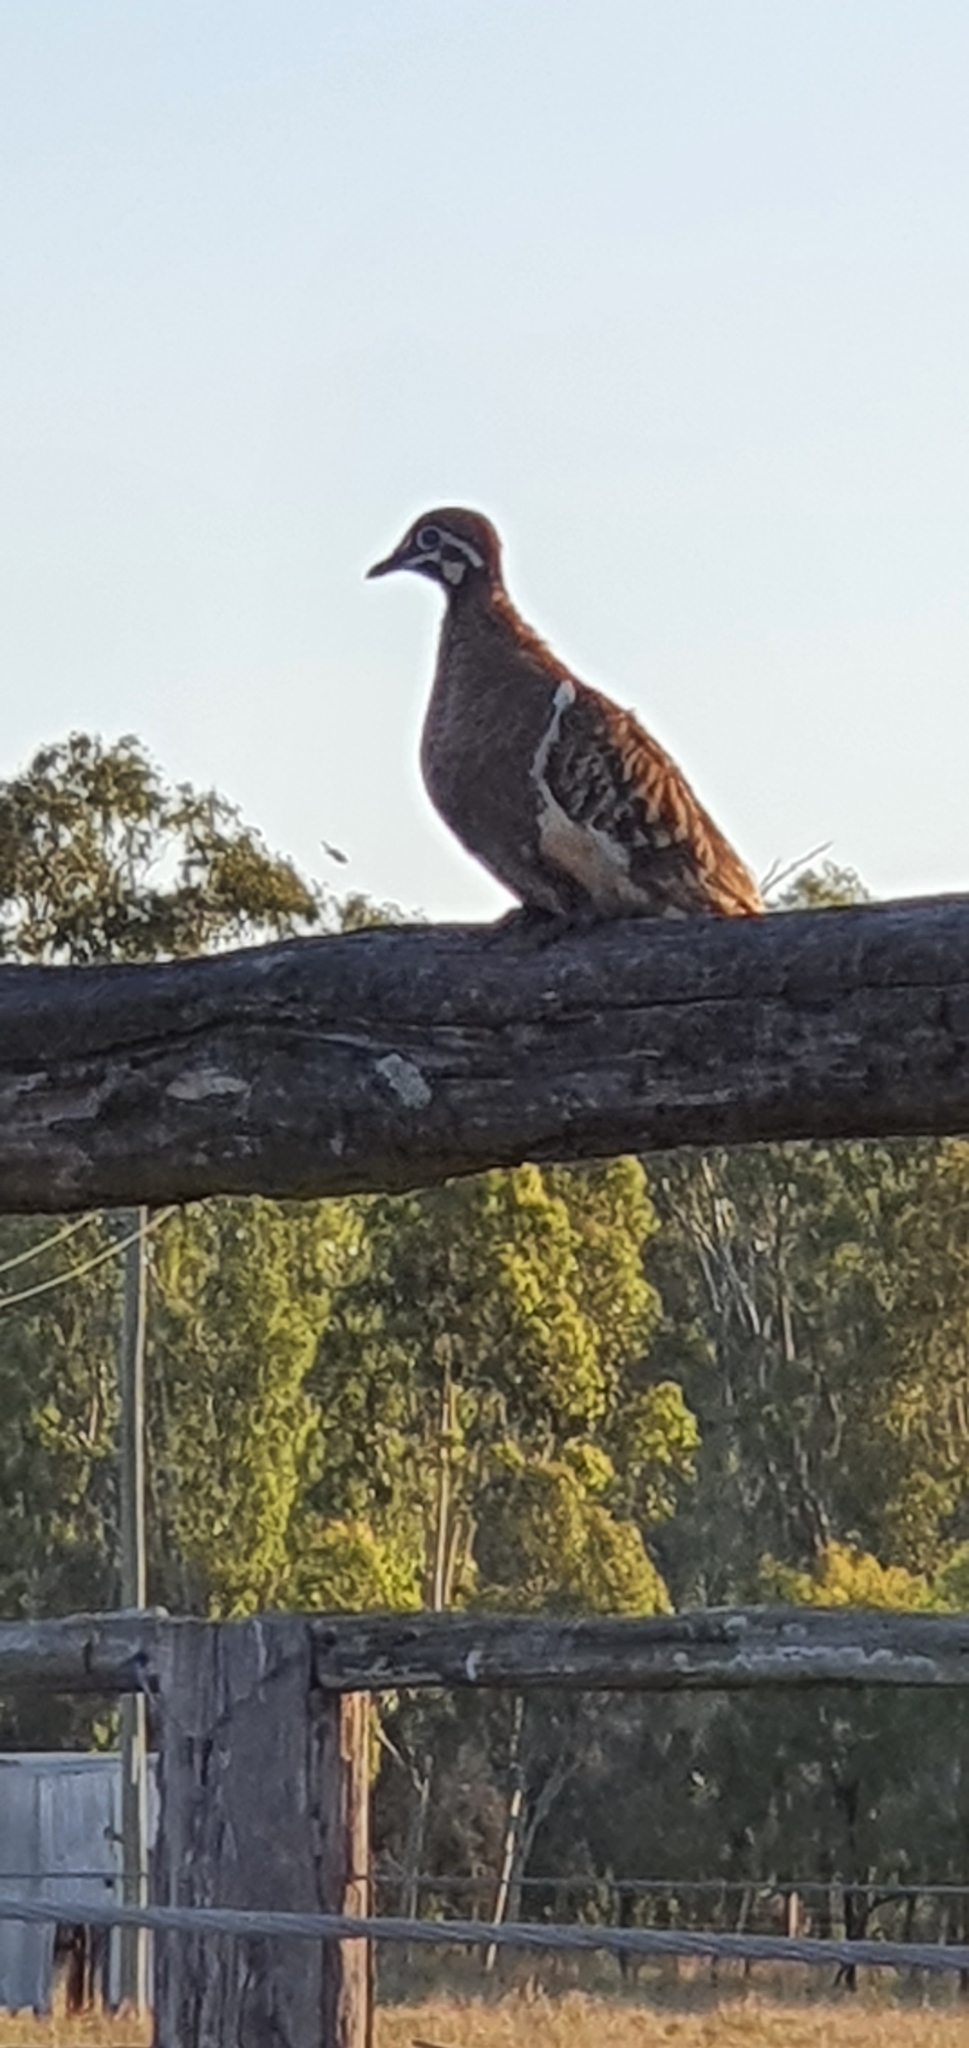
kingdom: Animalia
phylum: Chordata
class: Aves
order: Columbiformes
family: Columbidae
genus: Geophaps
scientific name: Geophaps scripta
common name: Squatter pigeon
